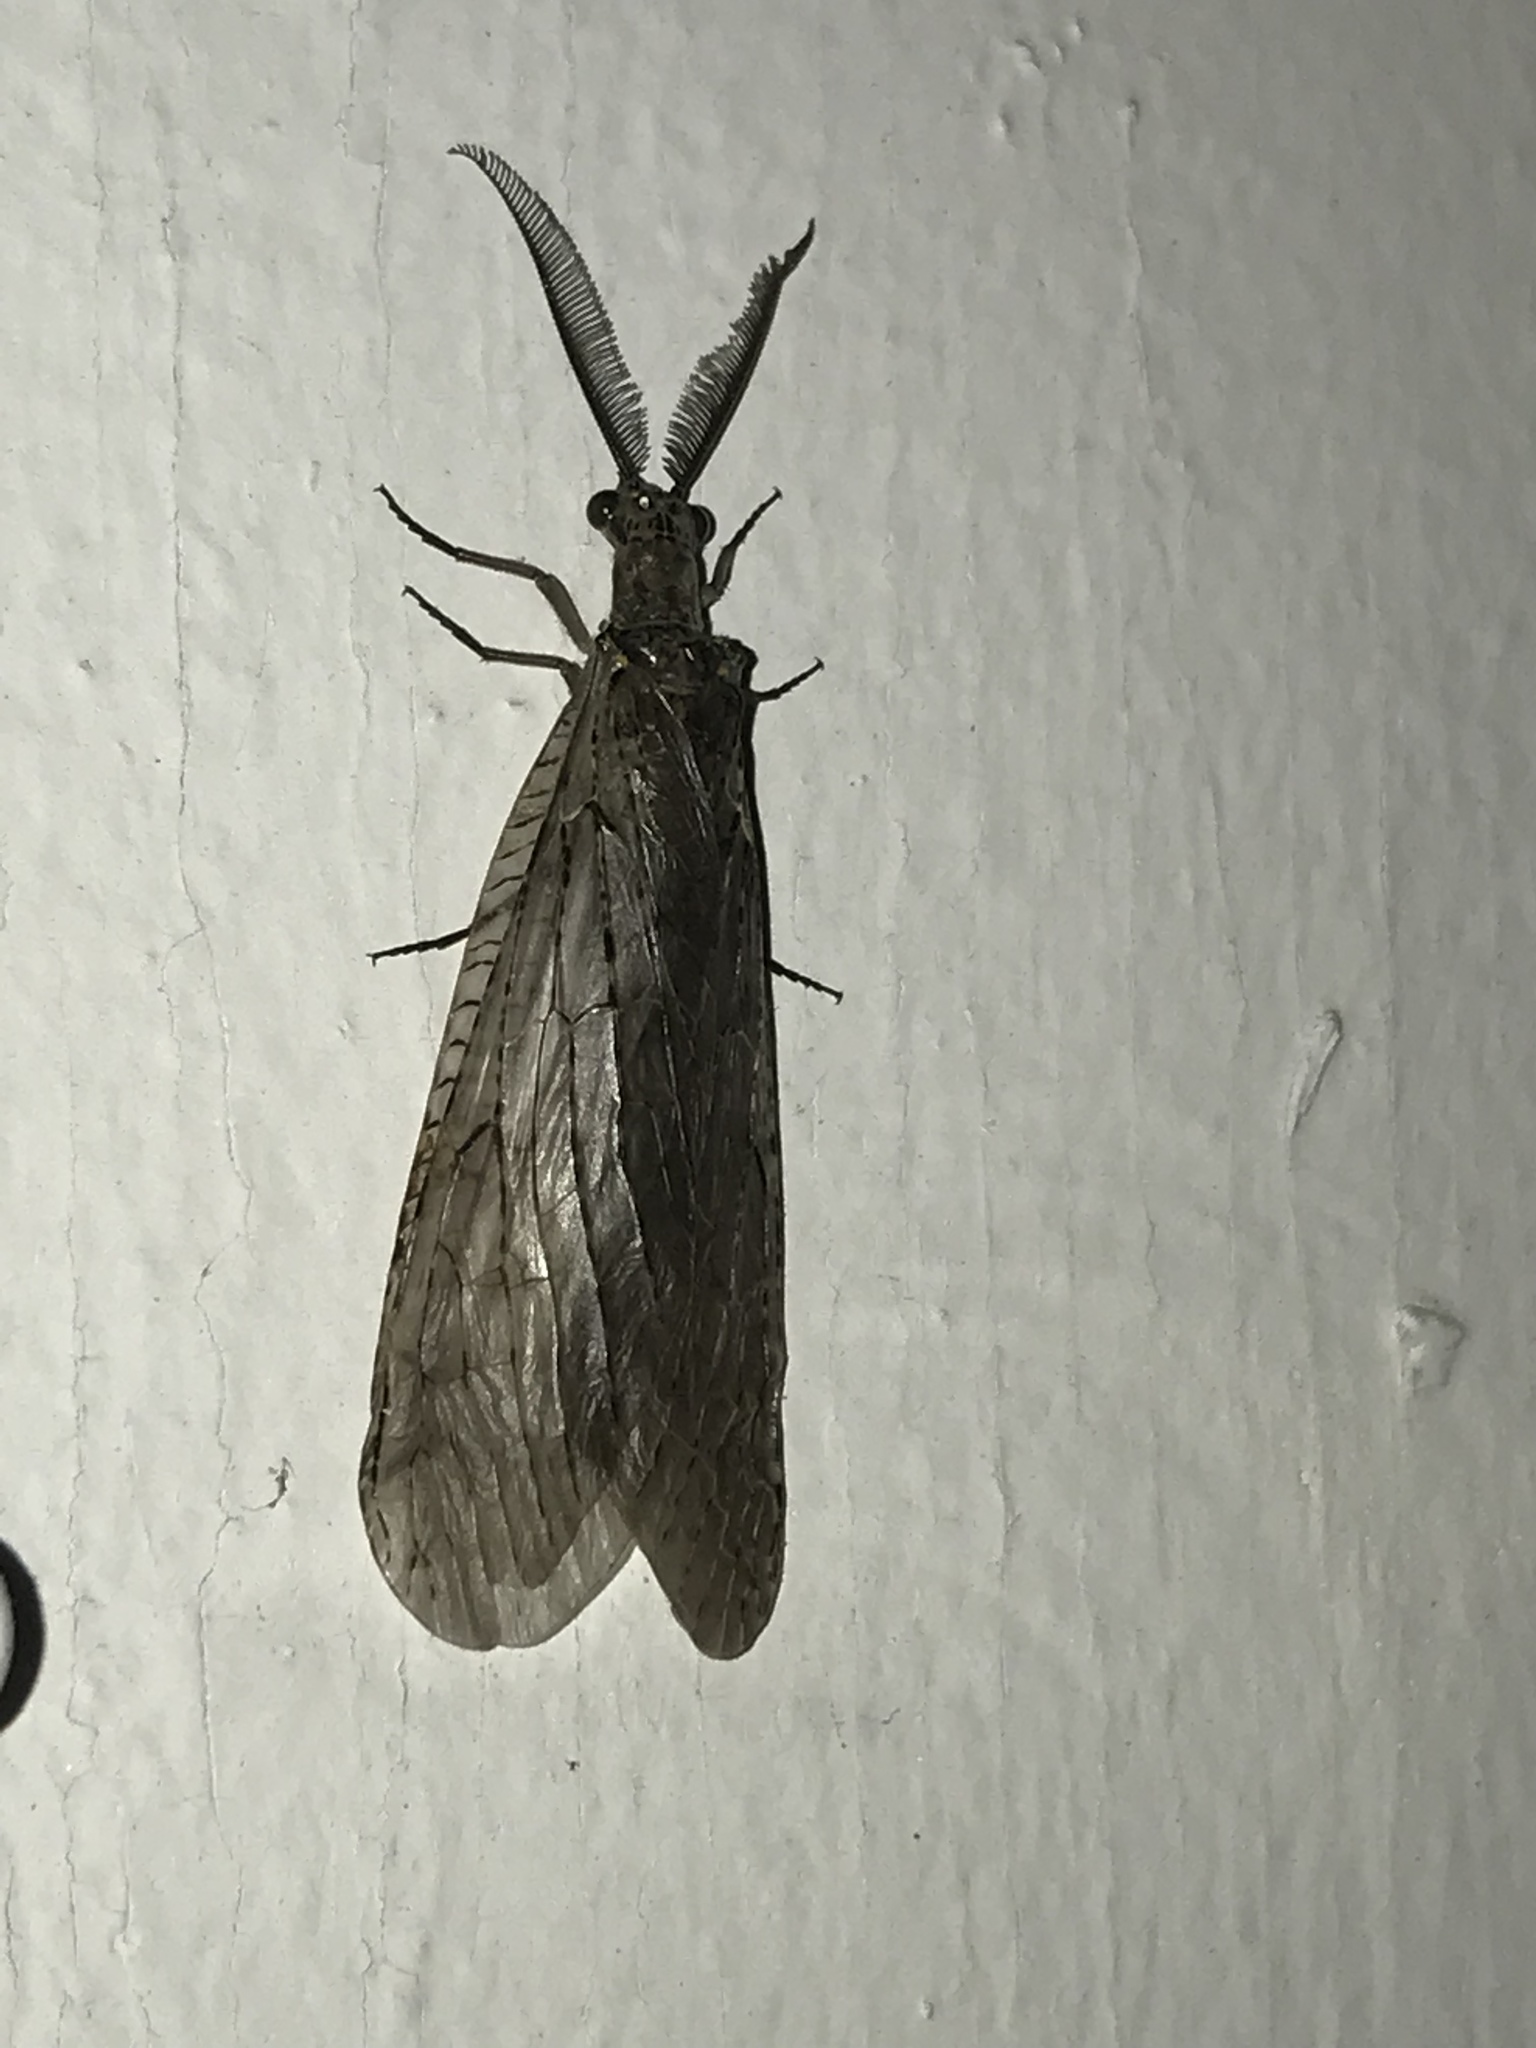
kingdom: Animalia
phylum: Arthropoda
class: Insecta
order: Megaloptera
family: Corydalidae
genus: Chauliodes
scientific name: Chauliodes rastricornis
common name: Spring fishfly
